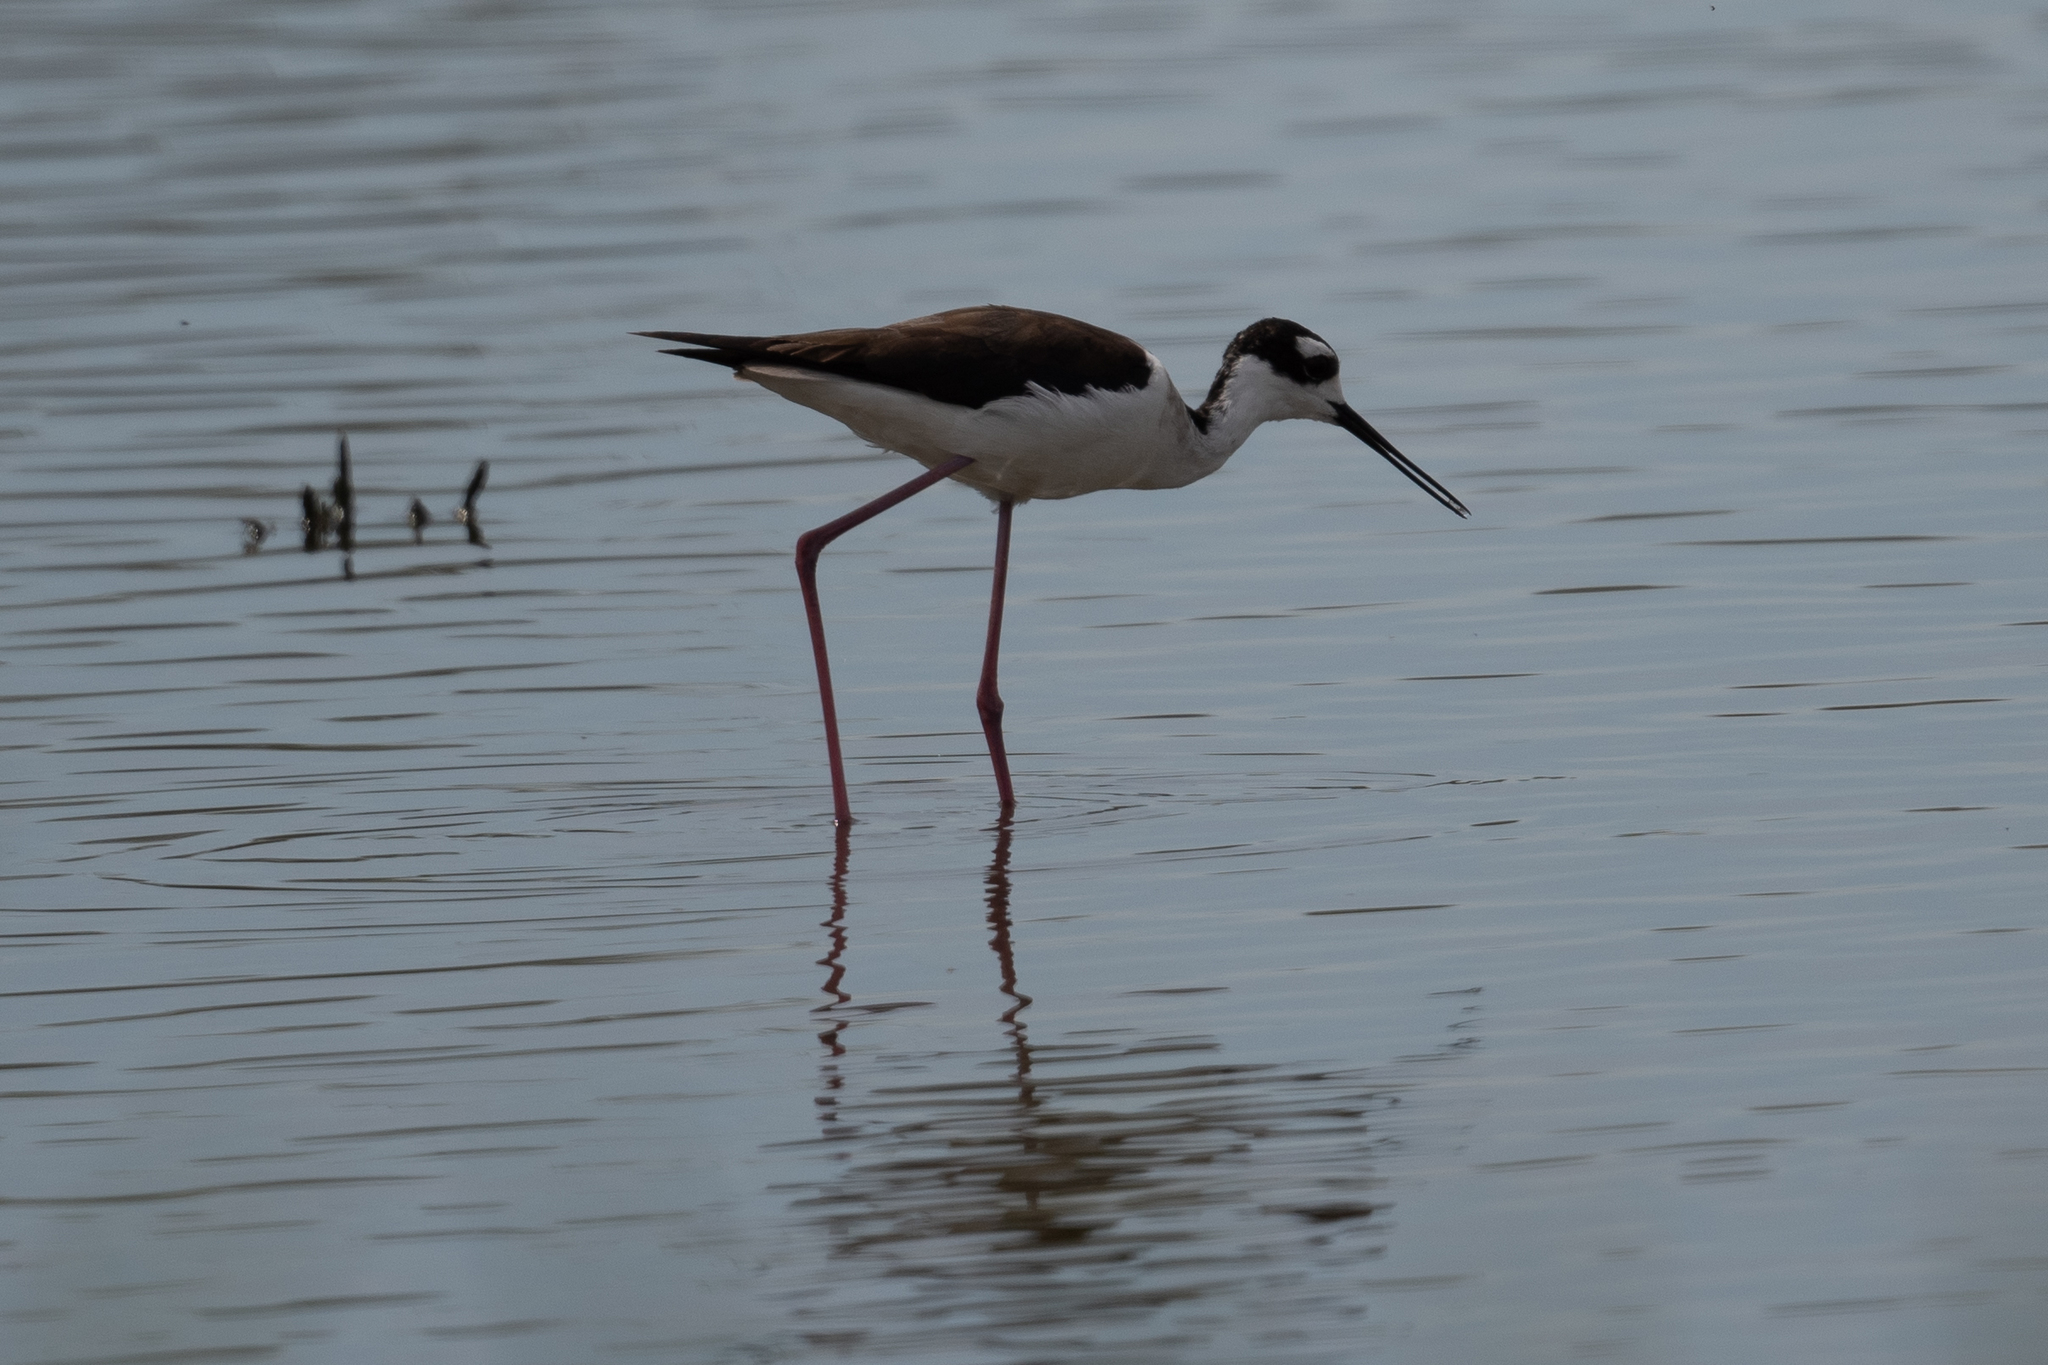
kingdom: Animalia
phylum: Chordata
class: Aves
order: Charadriiformes
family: Recurvirostridae
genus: Himantopus
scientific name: Himantopus mexicanus
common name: Black-necked stilt
